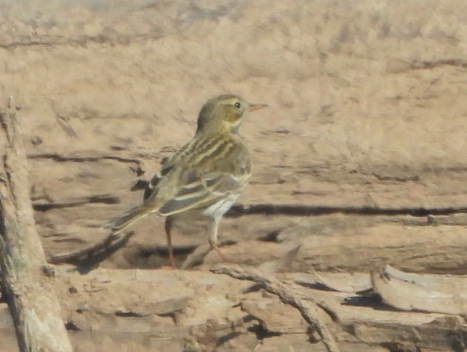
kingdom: Animalia
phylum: Chordata
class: Aves
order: Passeriformes
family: Motacillidae
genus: Anthus
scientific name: Anthus pratensis
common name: Meadow pipit
